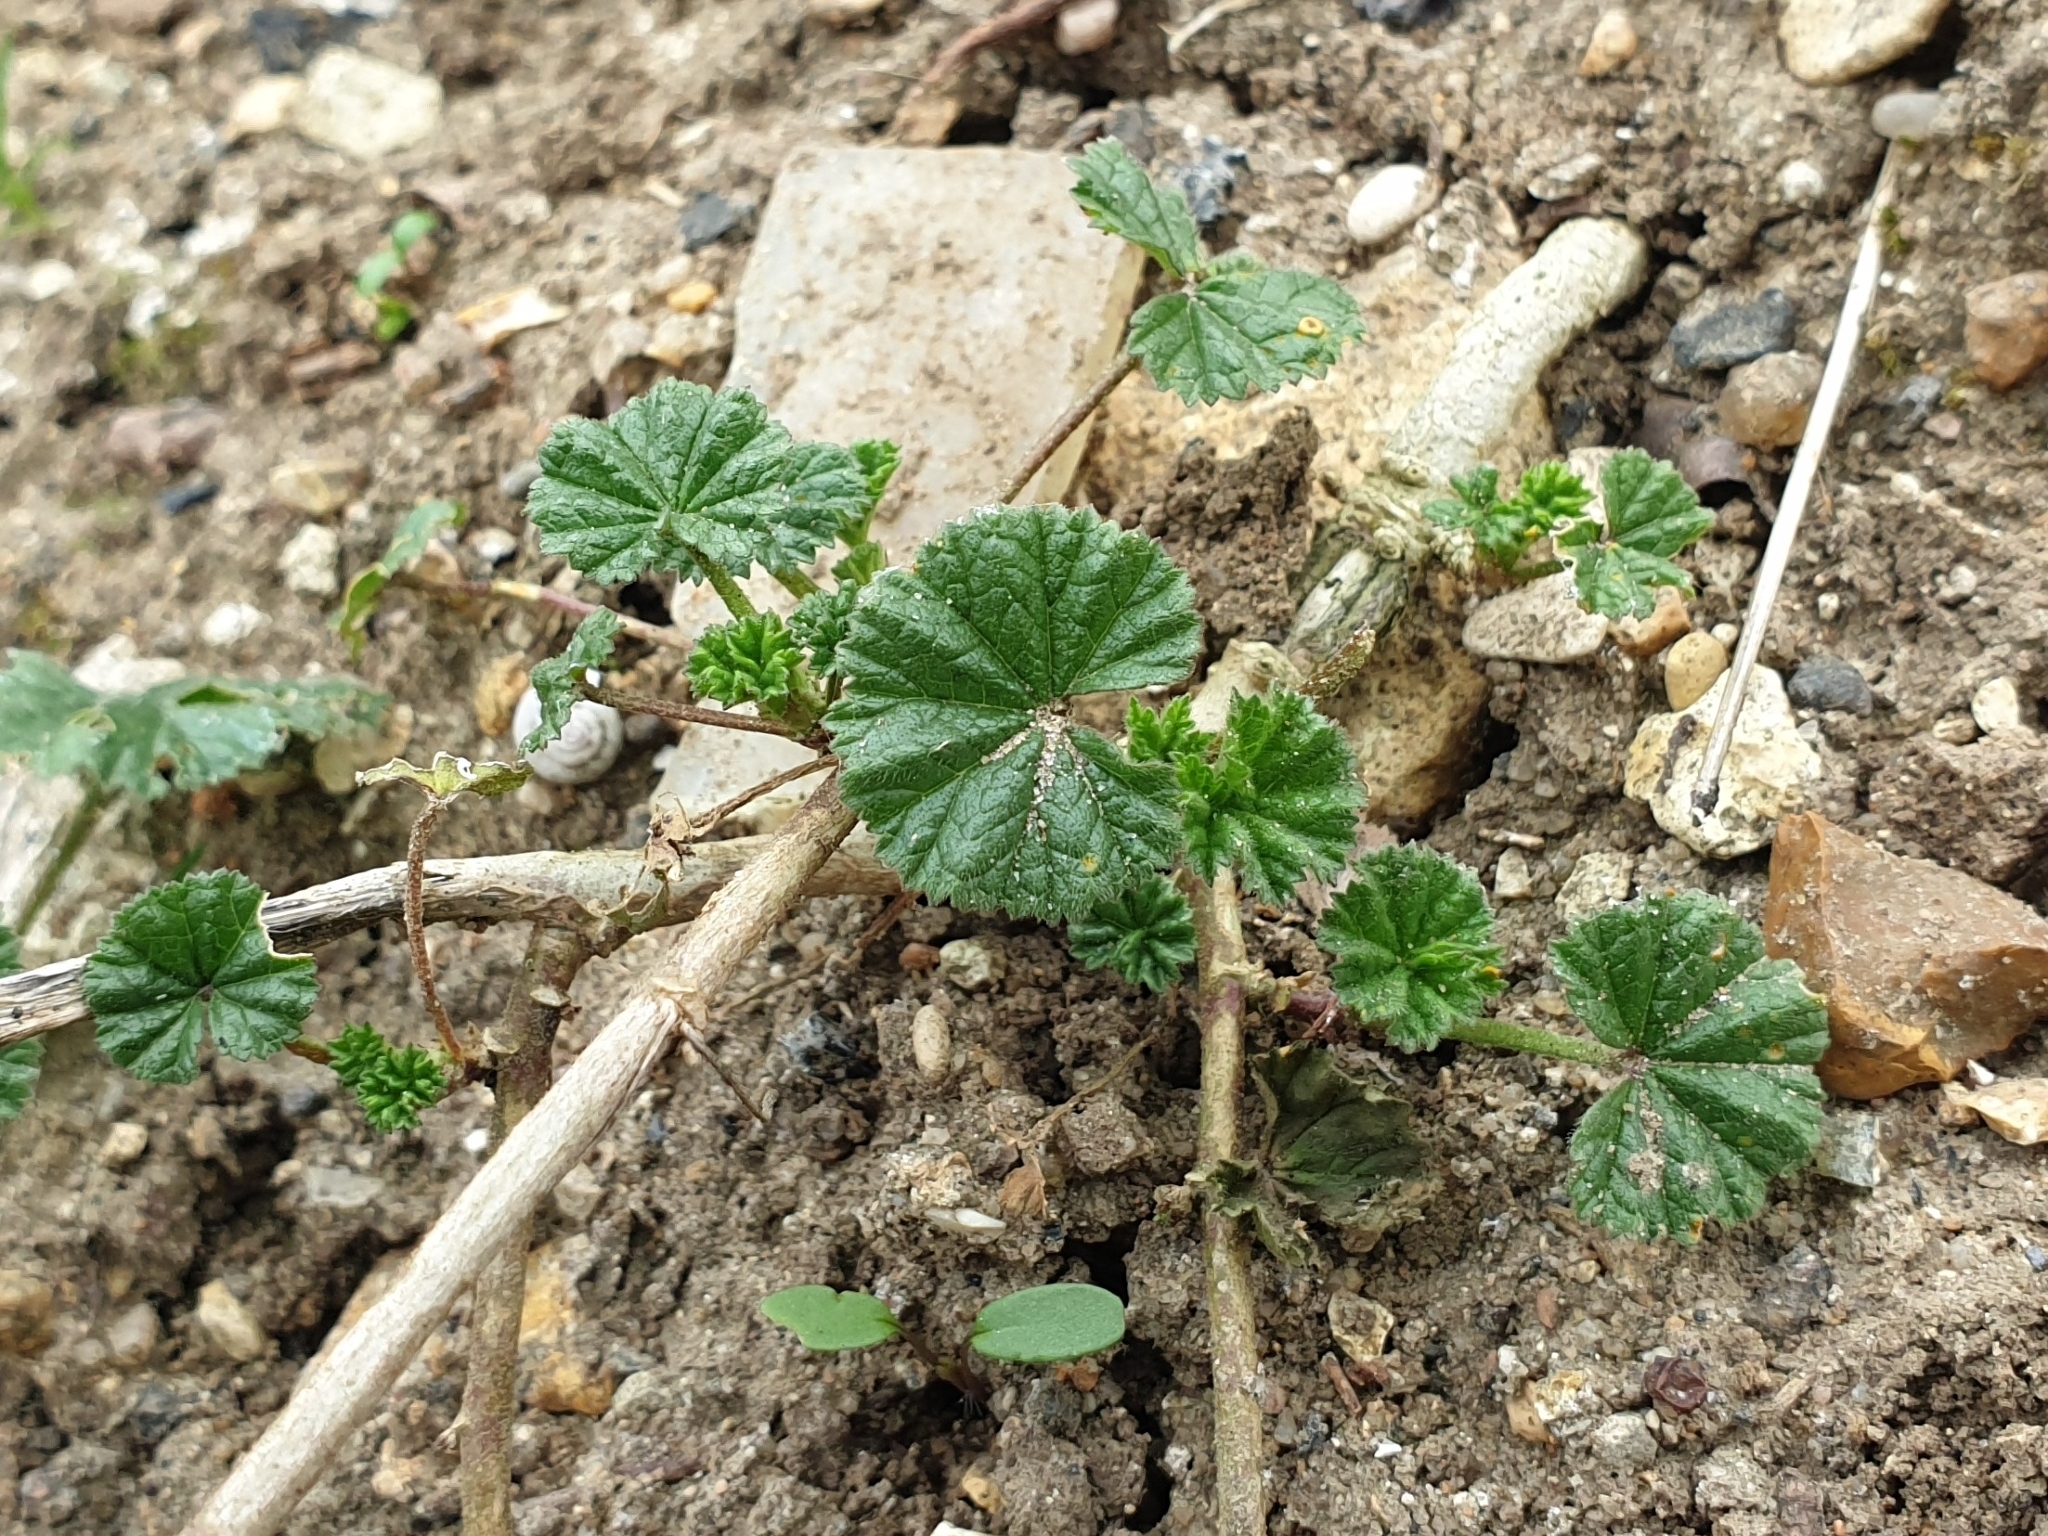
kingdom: Plantae
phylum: Tracheophyta
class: Magnoliopsida
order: Malvales
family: Malvaceae
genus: Malva
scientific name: Malva neglecta
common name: Common mallow
